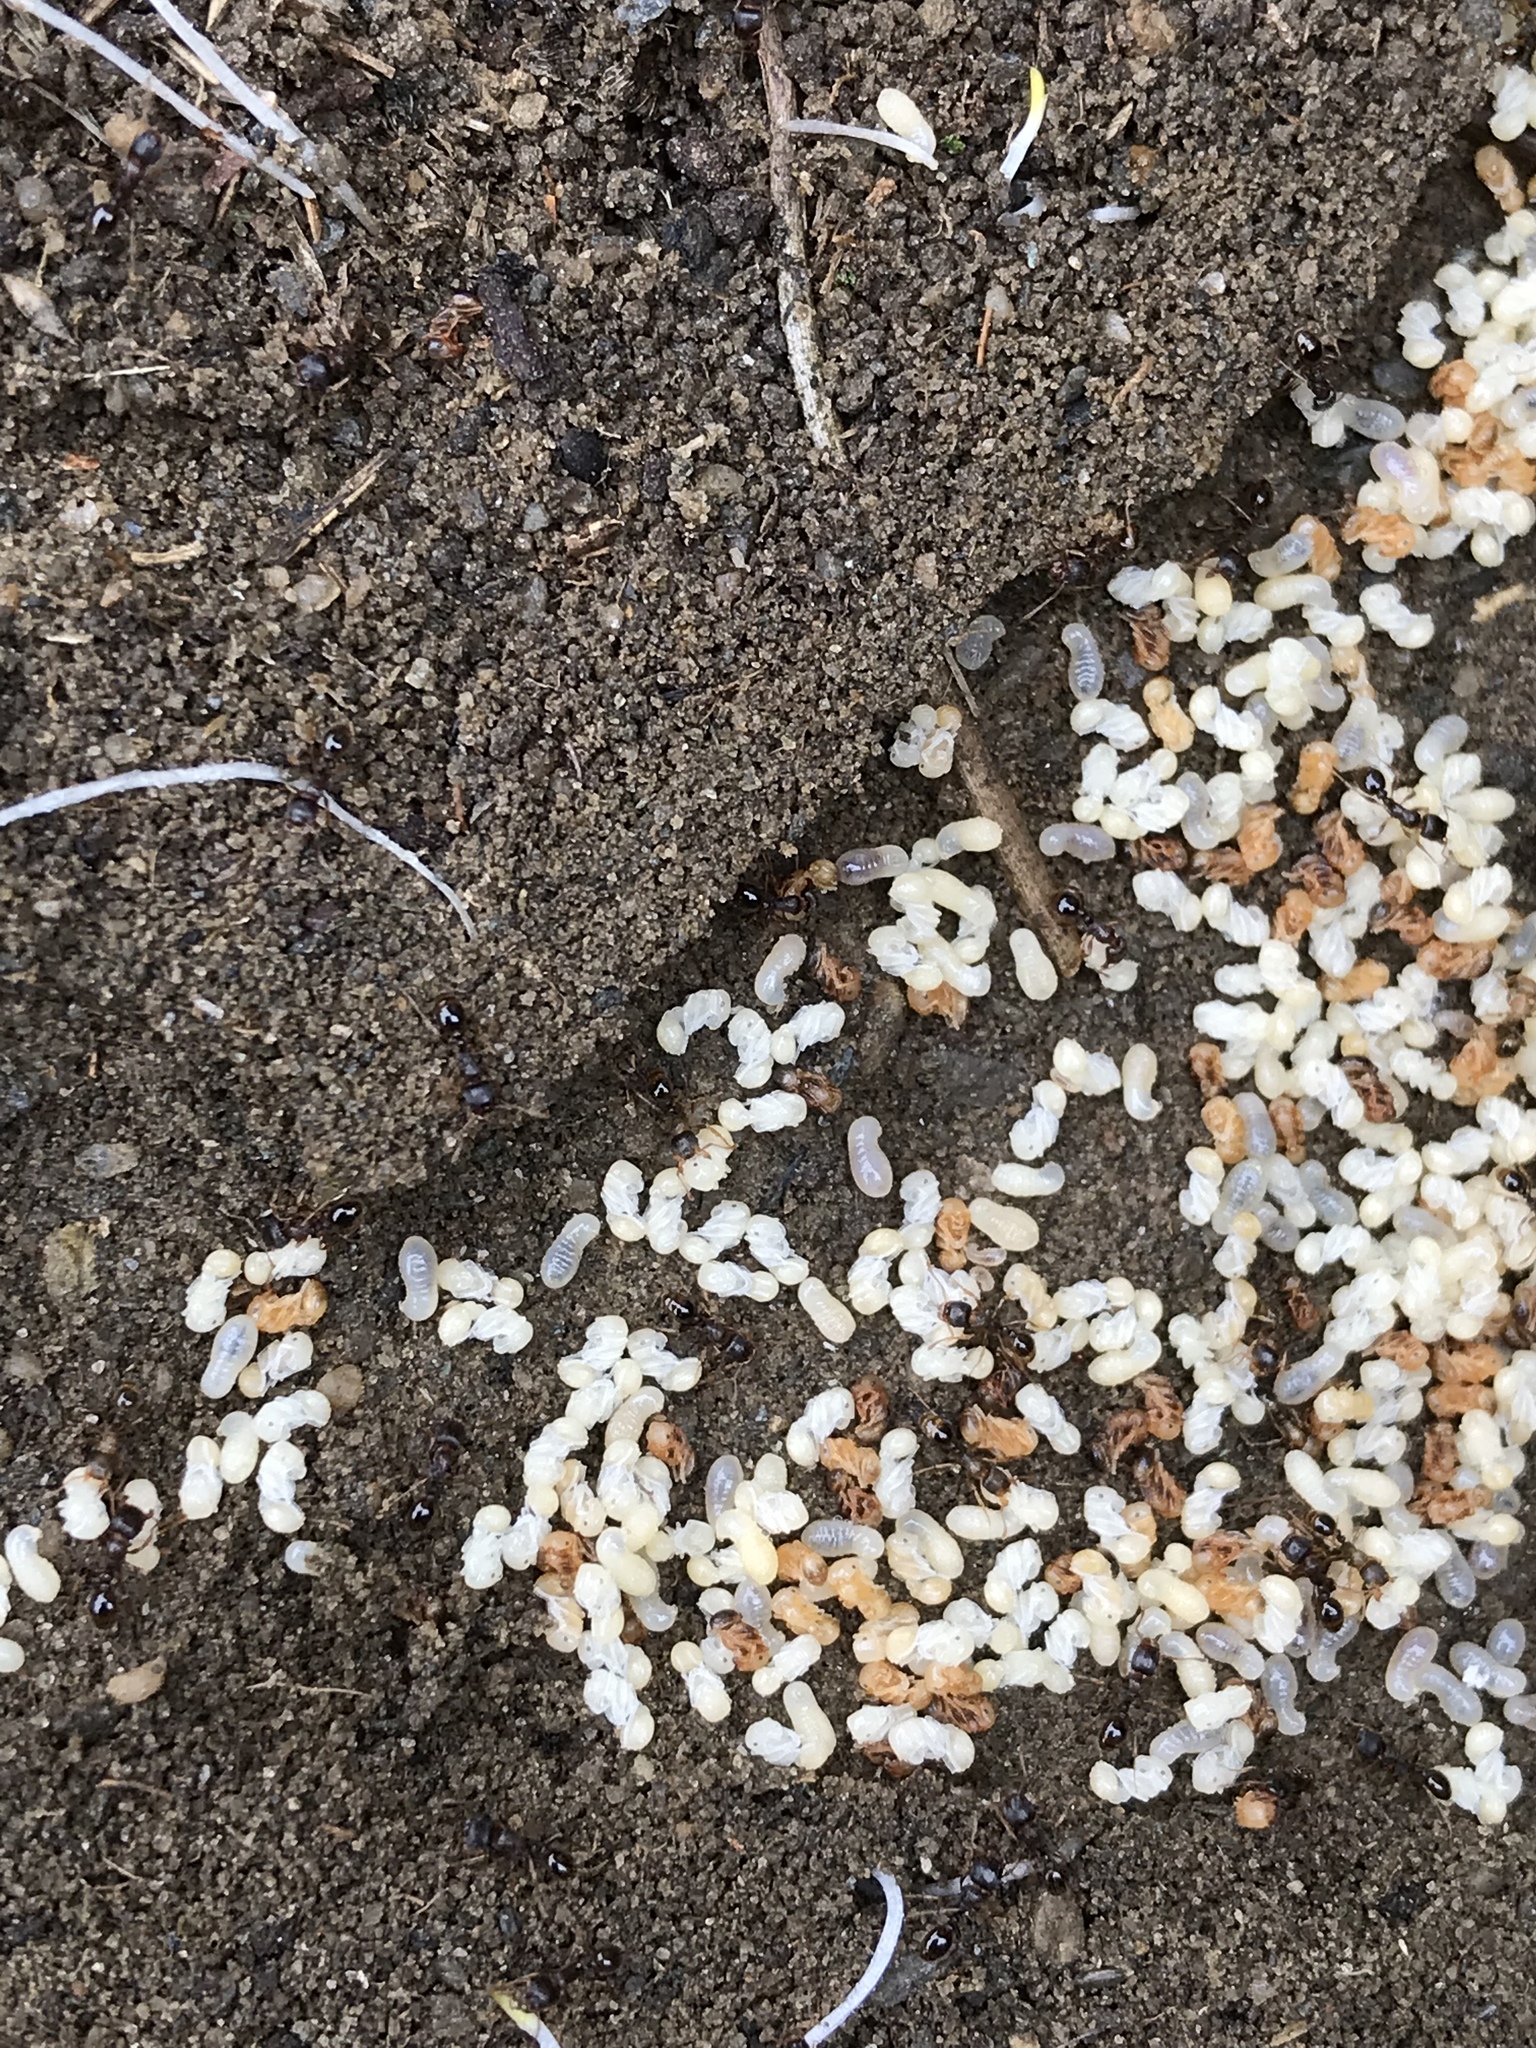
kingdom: Animalia
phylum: Arthropoda
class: Insecta
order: Hymenoptera
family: Formicidae
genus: Tetramorium
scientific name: Tetramorium immigrans
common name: Pavement ant
